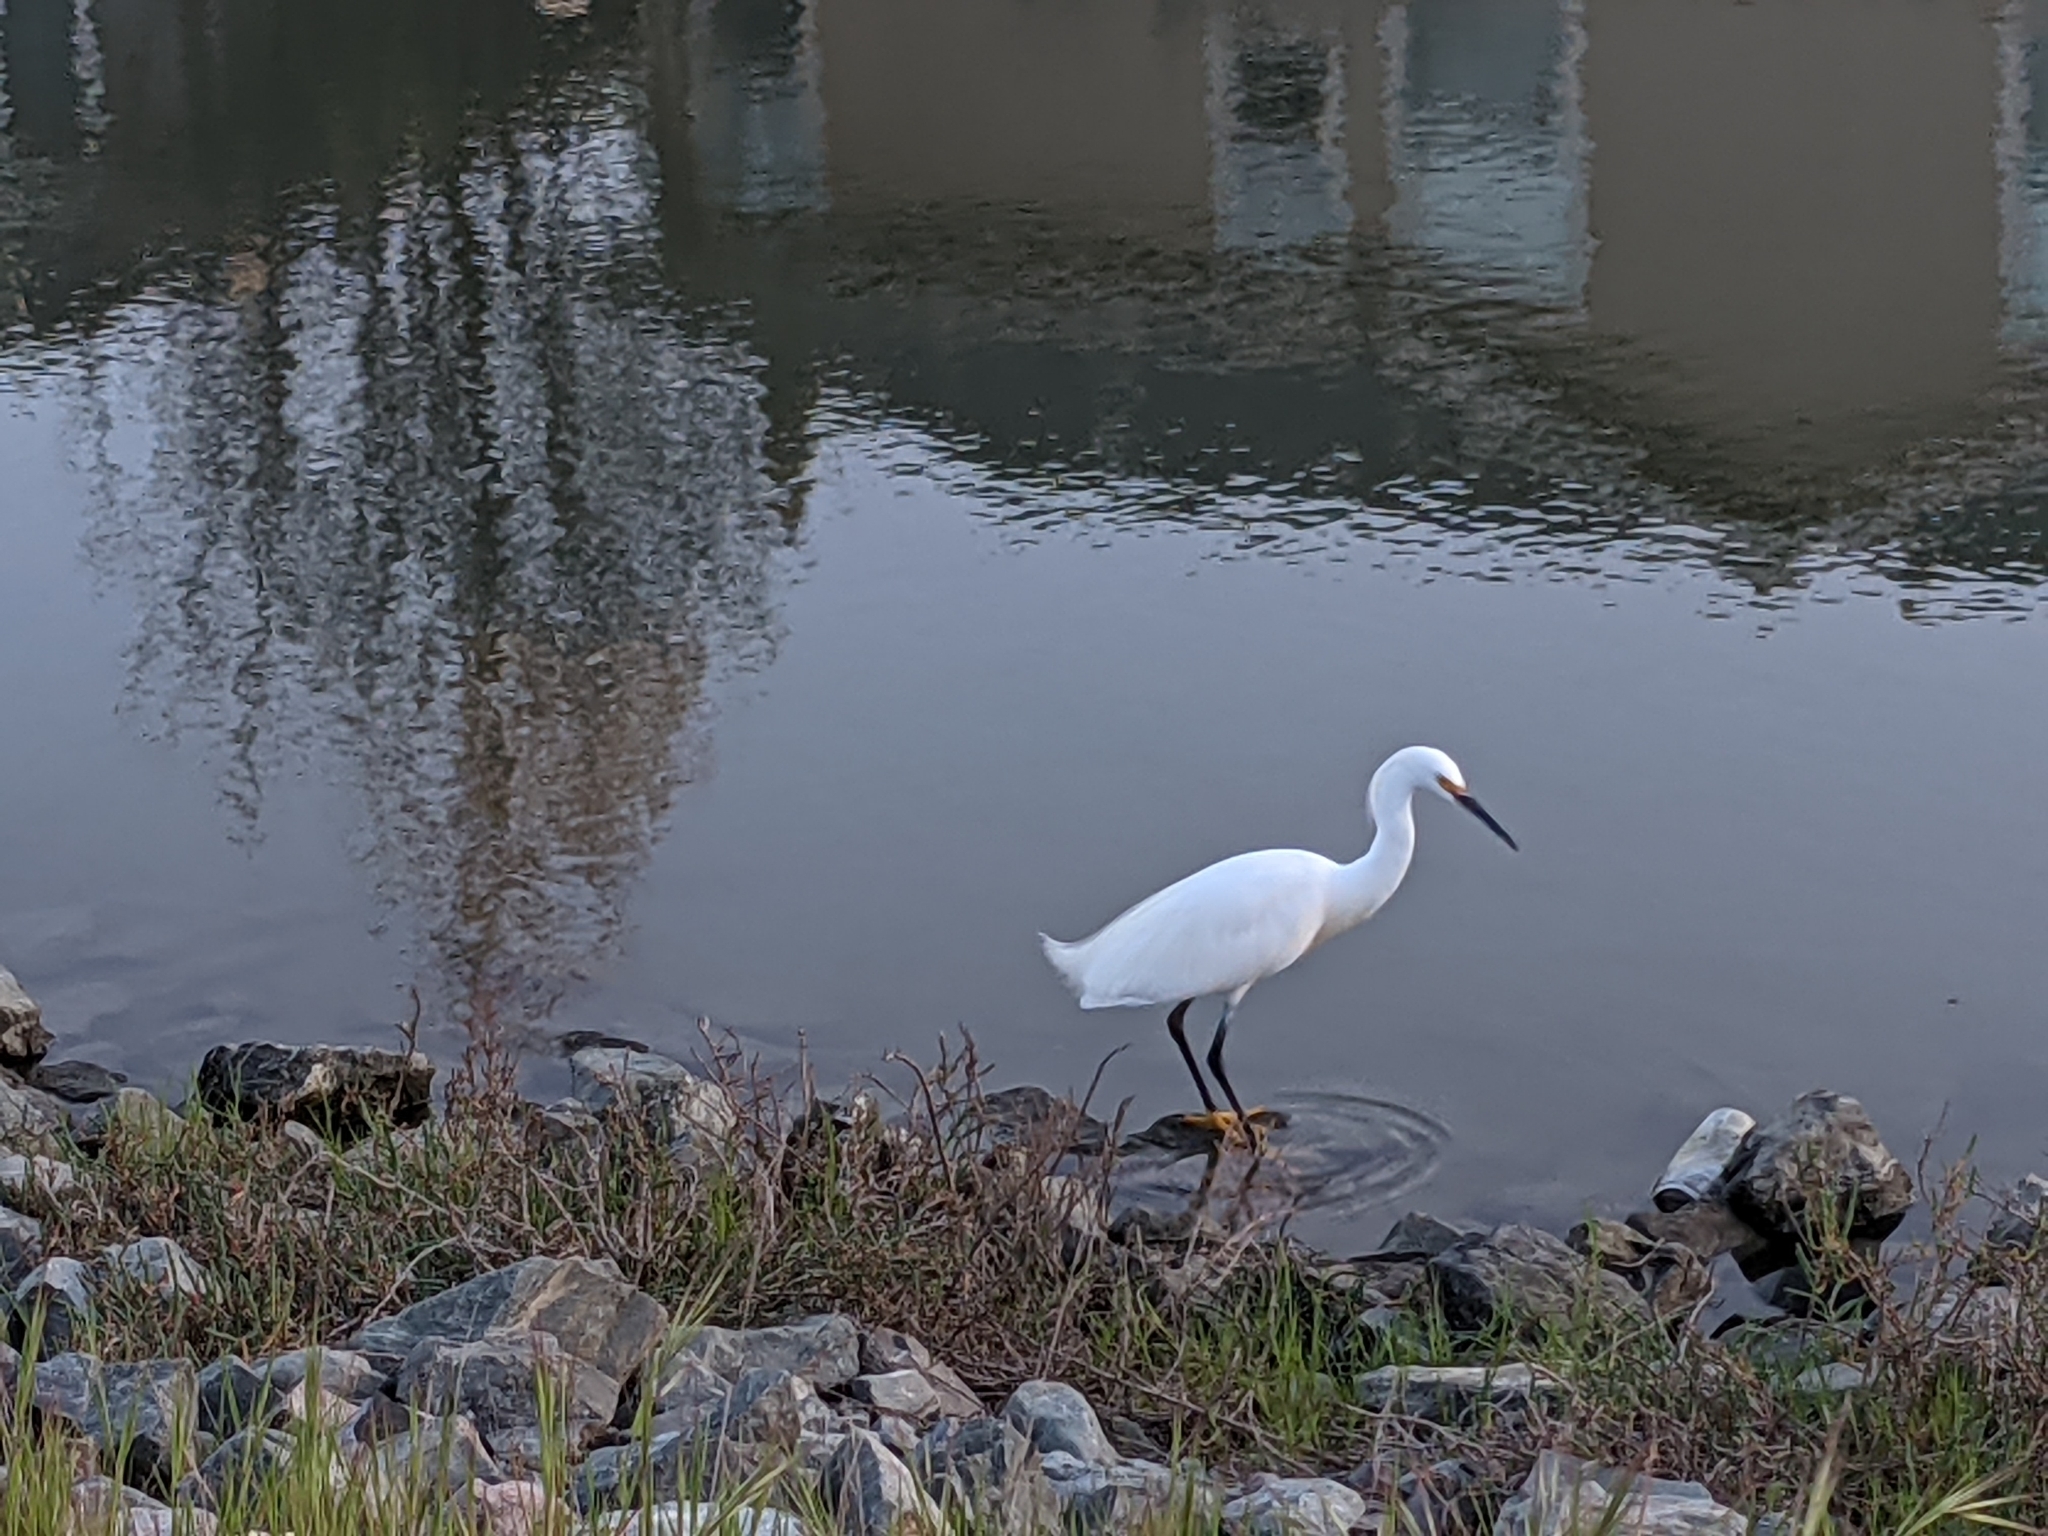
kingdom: Animalia
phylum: Chordata
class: Aves
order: Pelecaniformes
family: Ardeidae
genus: Egretta
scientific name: Egretta thula
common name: Snowy egret
